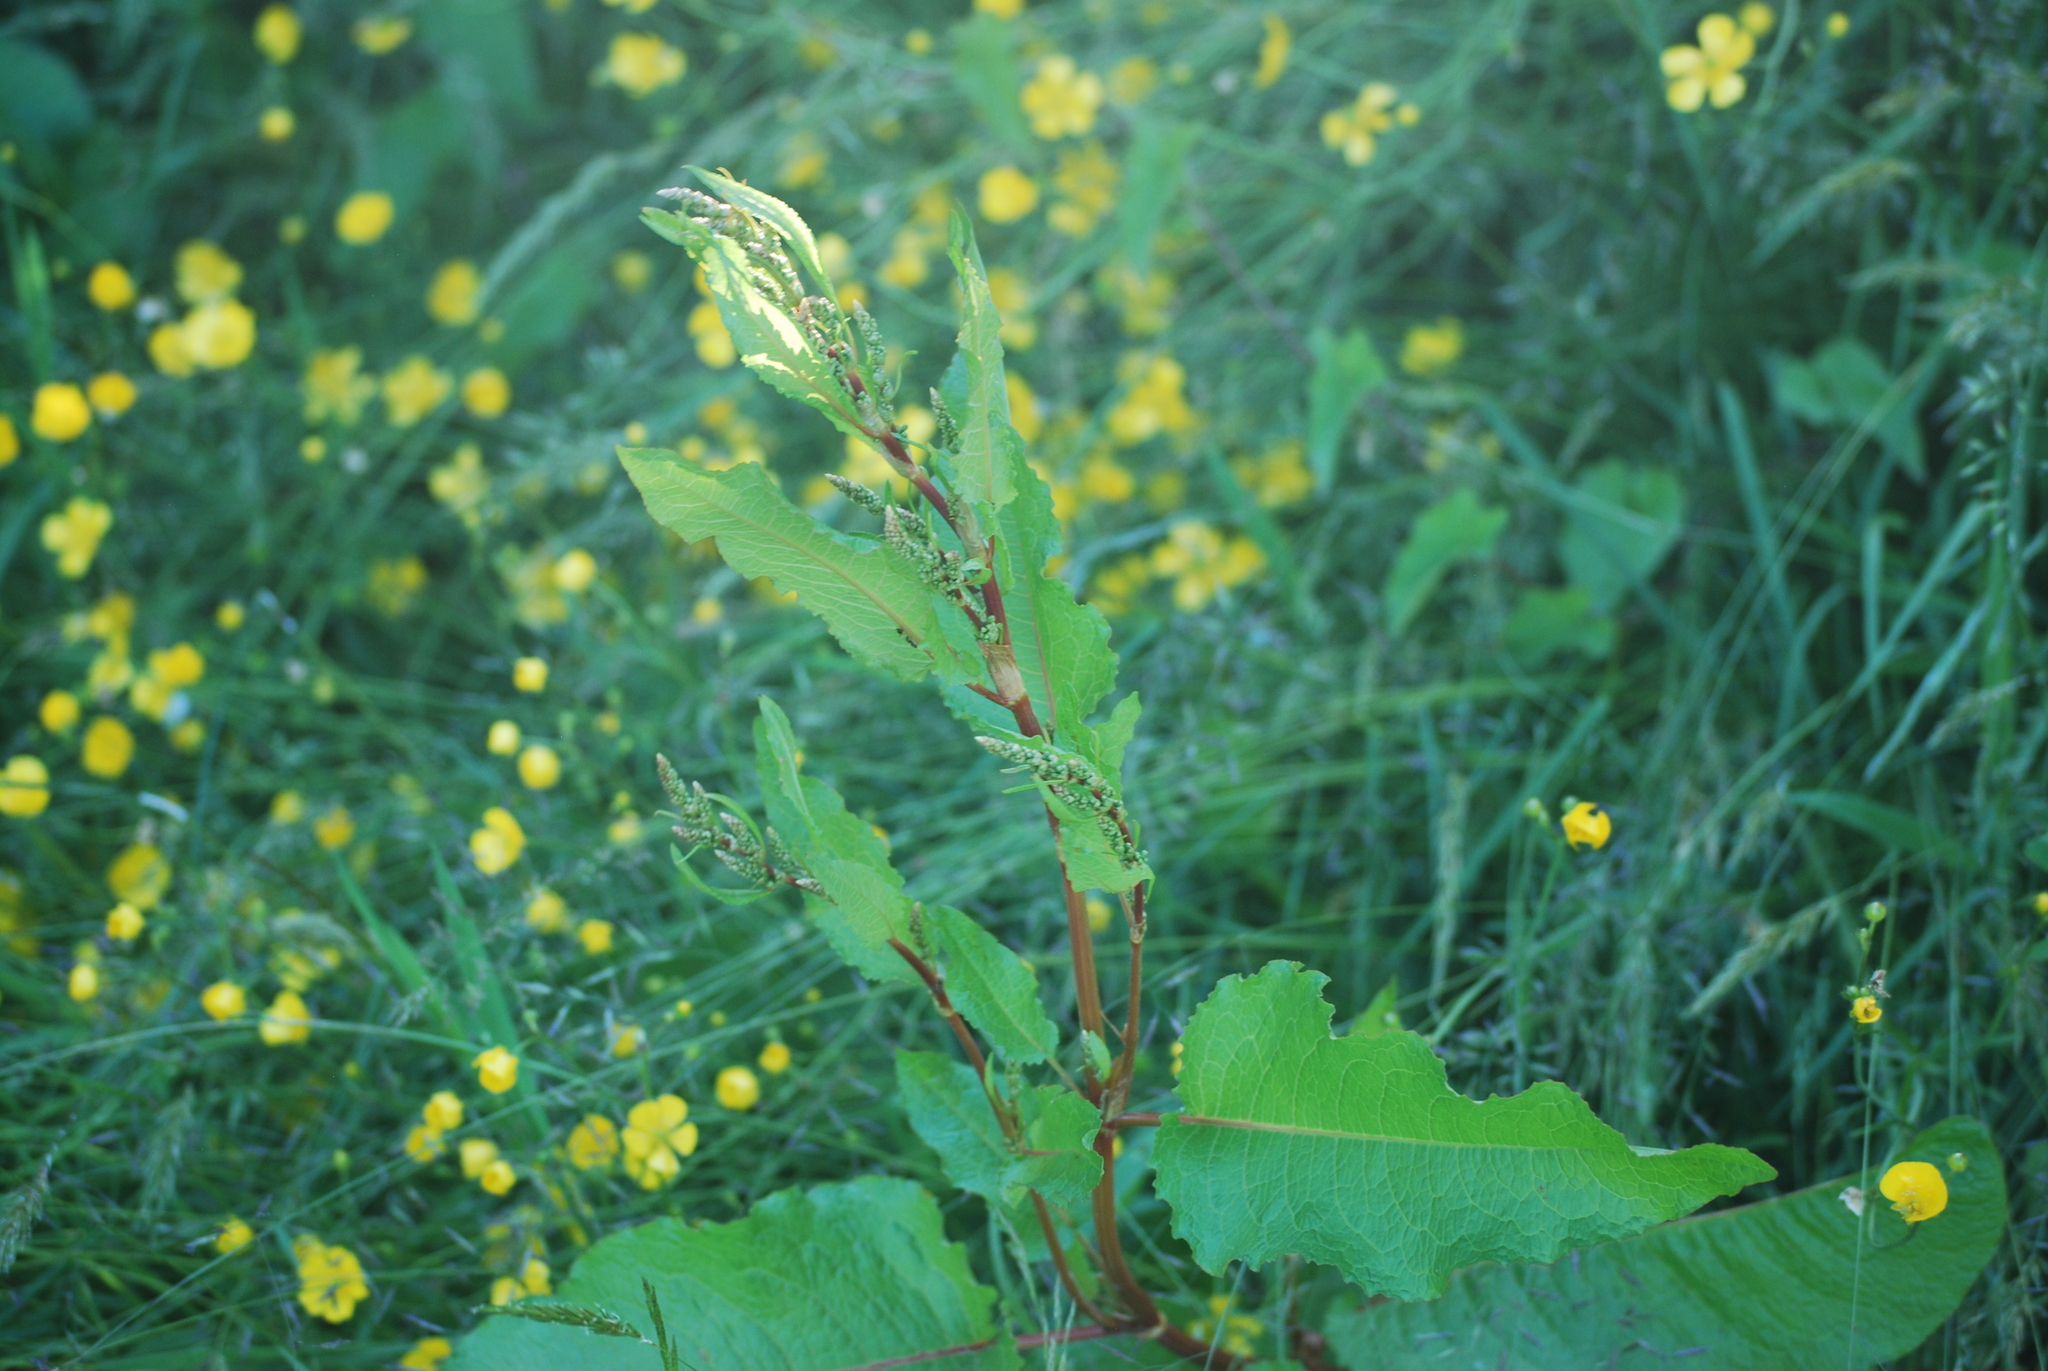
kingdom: Plantae
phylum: Tracheophyta
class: Magnoliopsida
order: Caryophyllales
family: Polygonaceae
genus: Rumex
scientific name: Rumex obtusifolius
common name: Bitter dock
